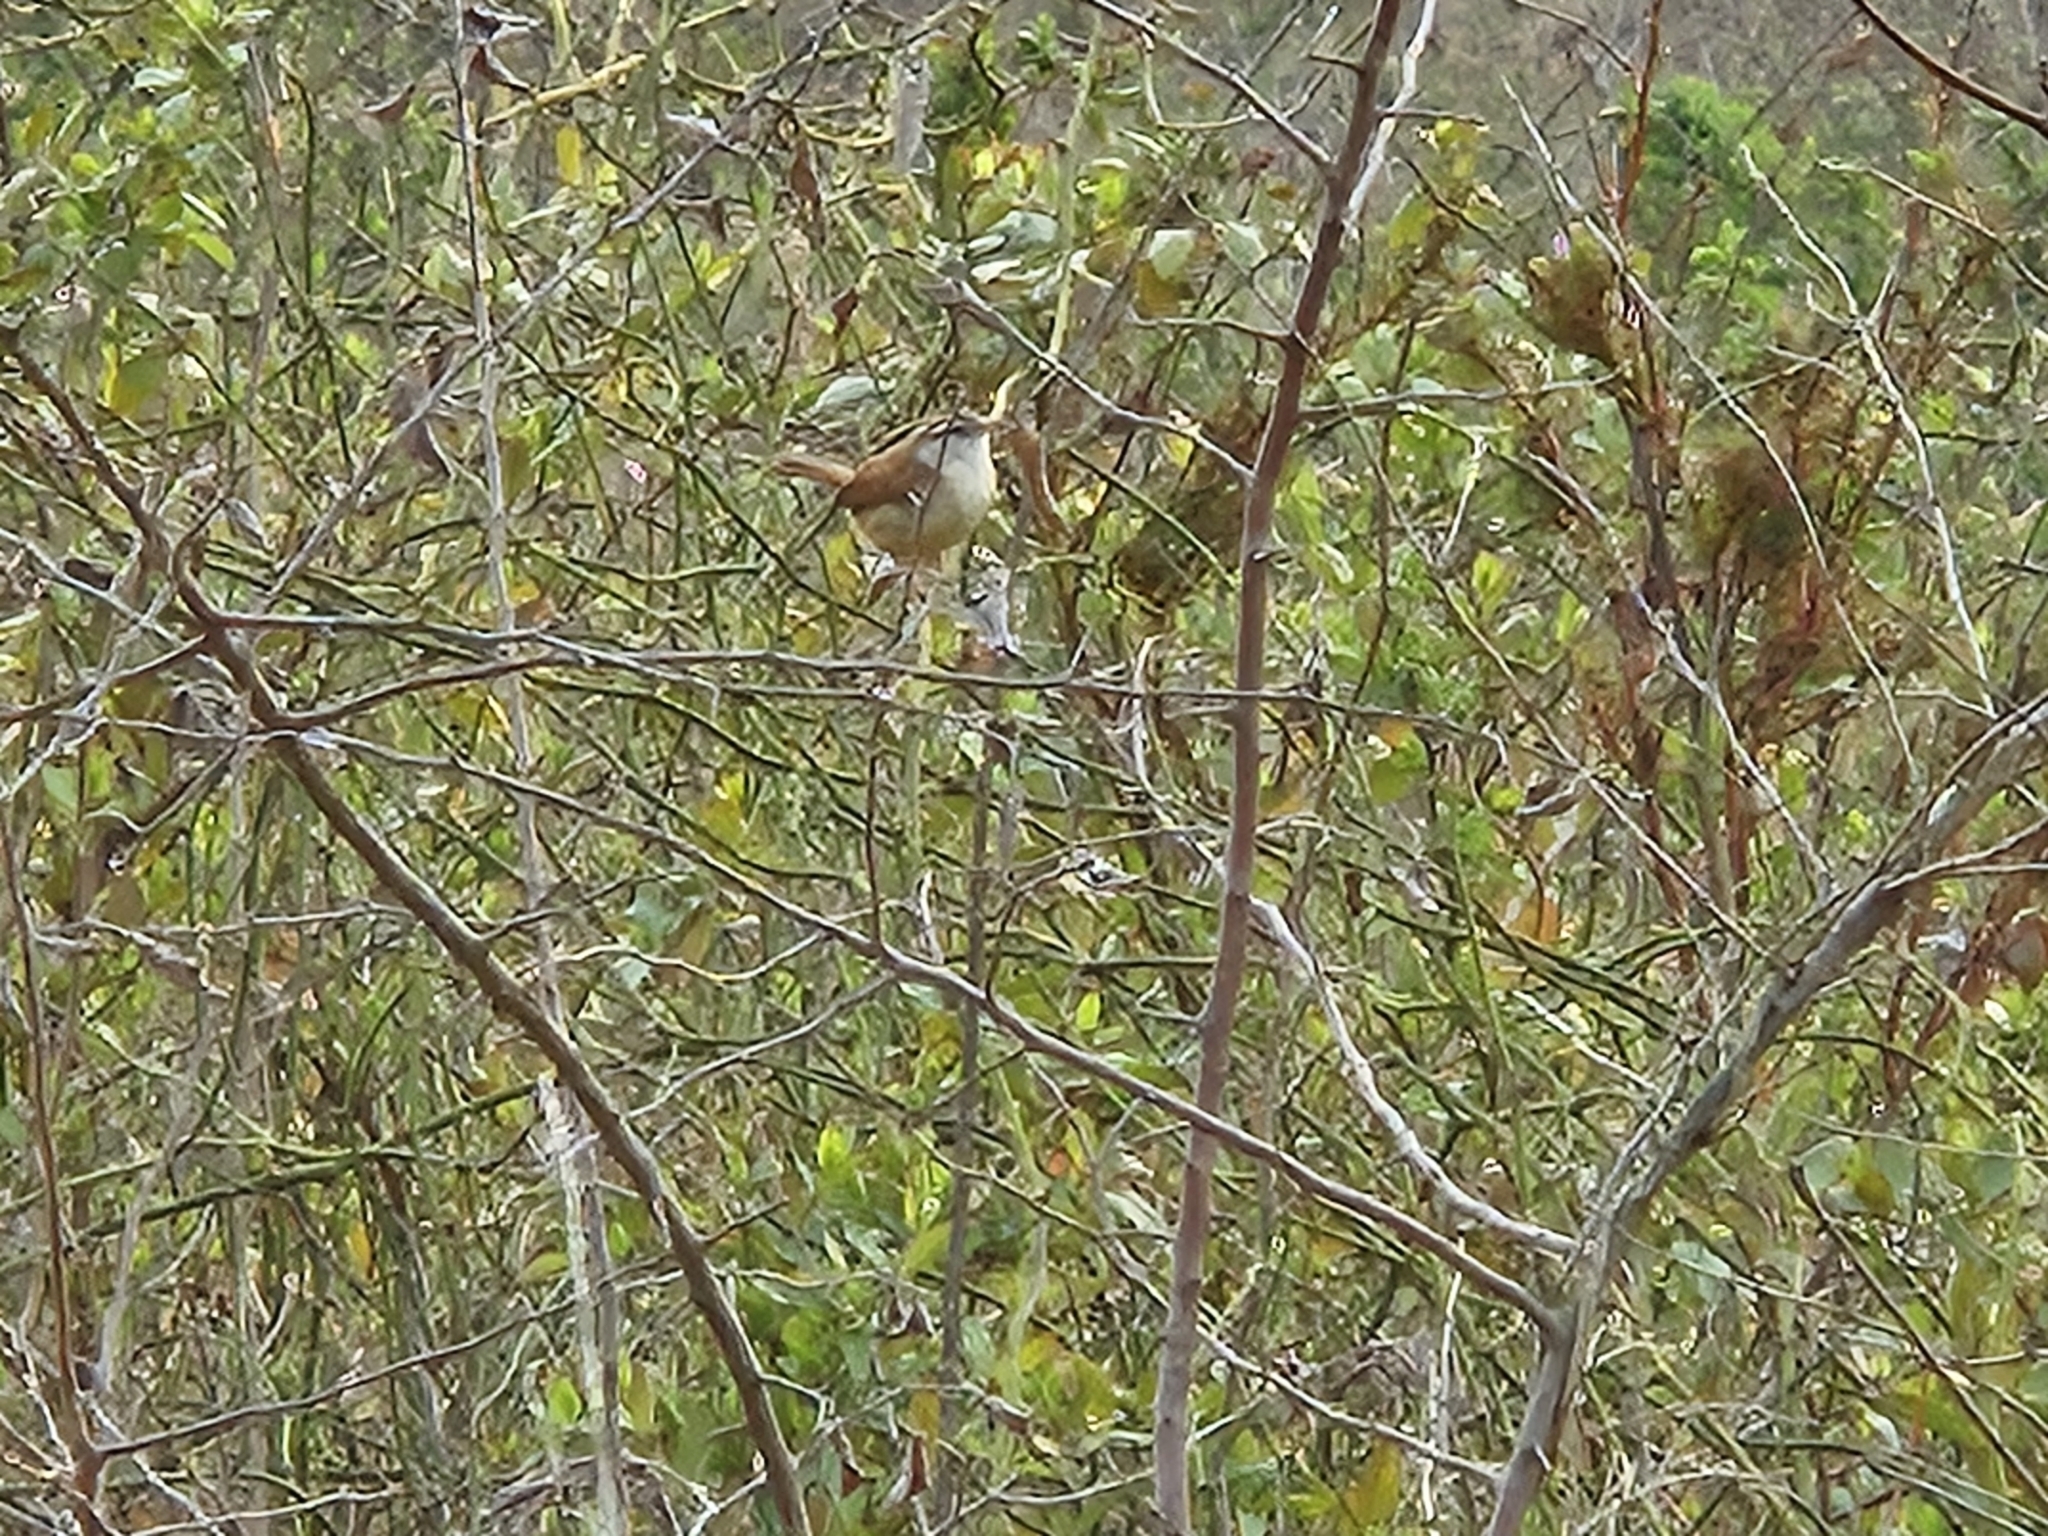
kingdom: Animalia
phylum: Chordata
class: Aves
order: Passeriformes
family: Troglodytidae
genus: Thryothorus
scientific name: Thryothorus ludovicianus
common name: Carolina wren
